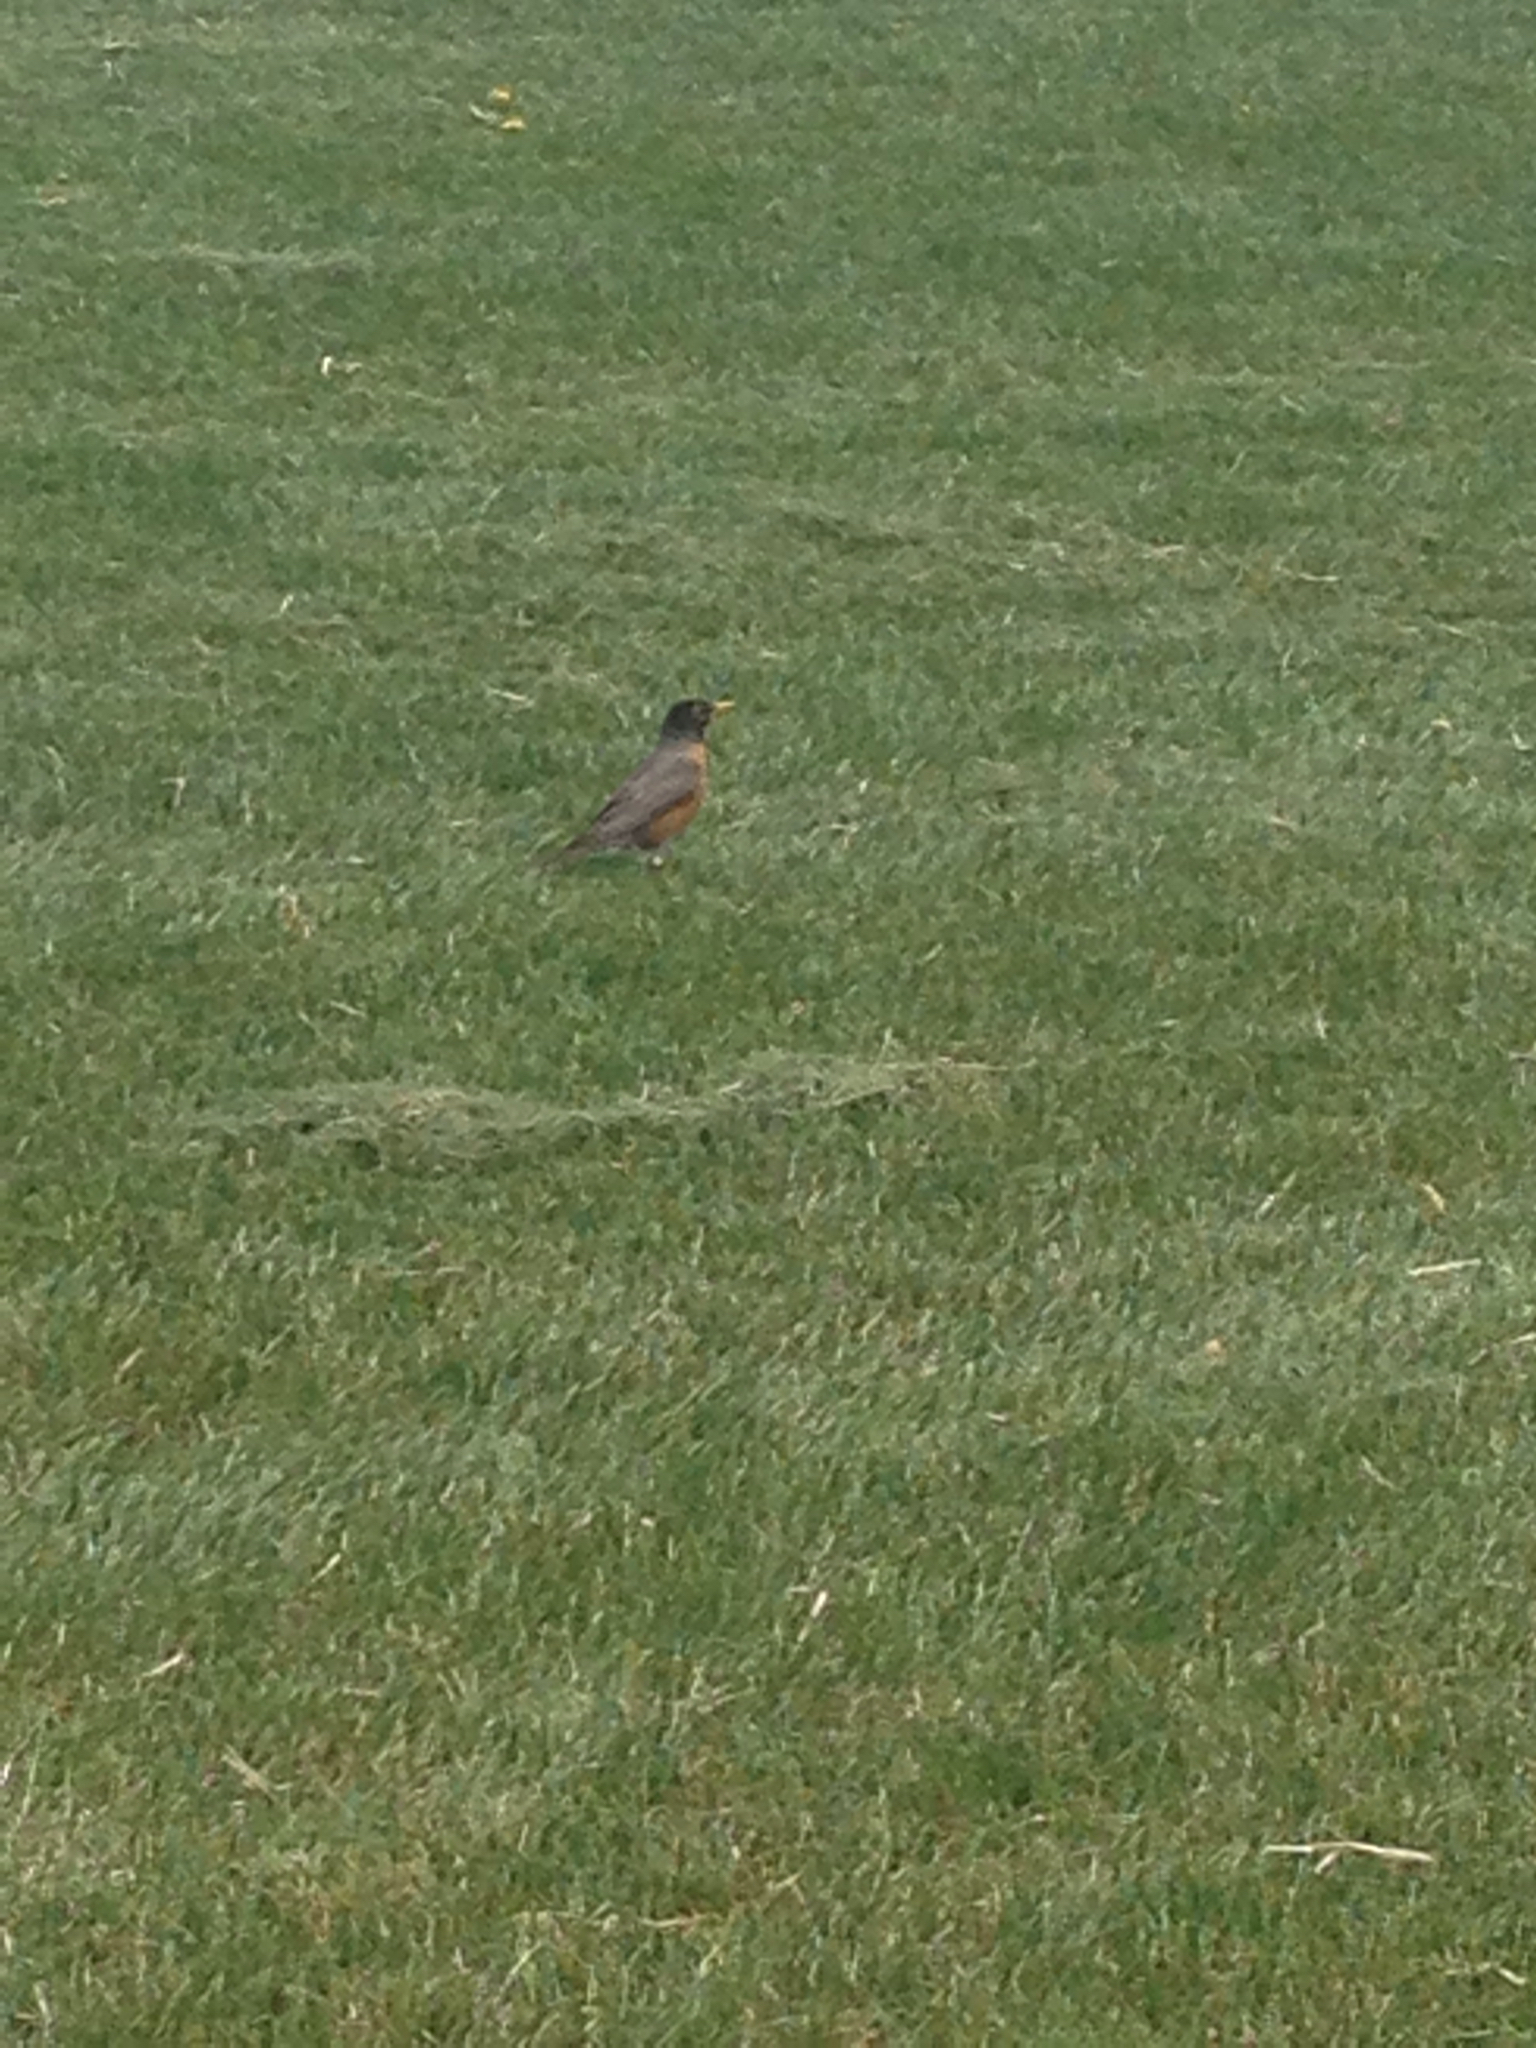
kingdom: Animalia
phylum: Chordata
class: Aves
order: Passeriformes
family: Turdidae
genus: Turdus
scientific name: Turdus migratorius
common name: American robin
